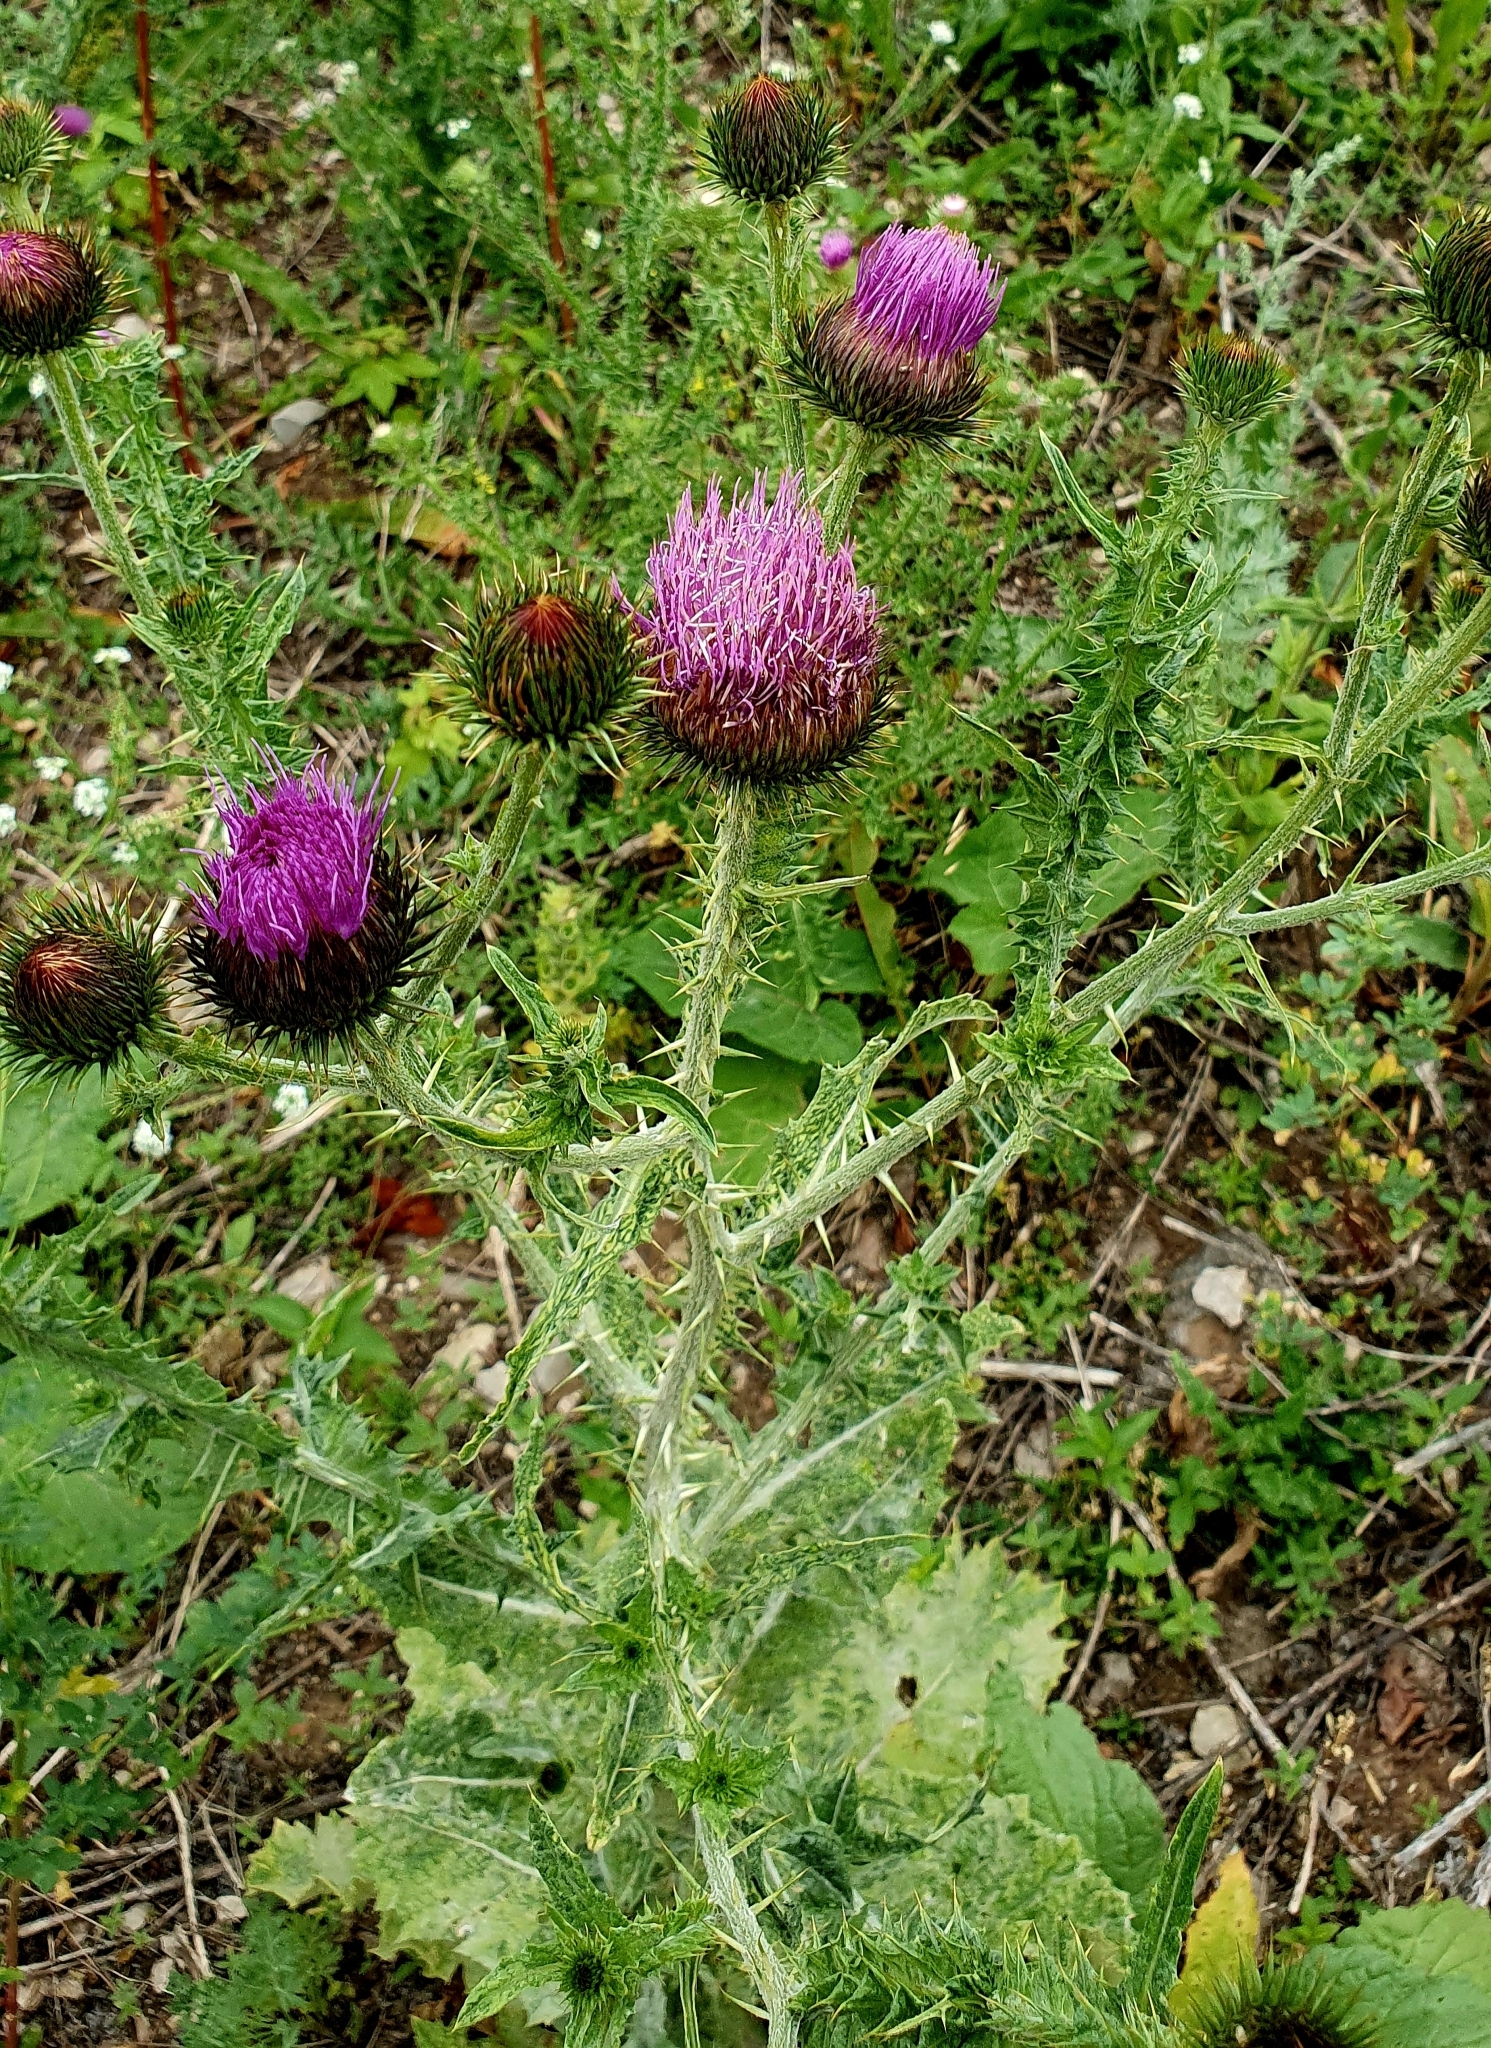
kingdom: Plantae
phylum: Tracheophyta
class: Magnoliopsida
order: Asterales
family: Asteraceae
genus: Onopordum
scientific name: Onopordum acanthium
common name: Scotch thistle
